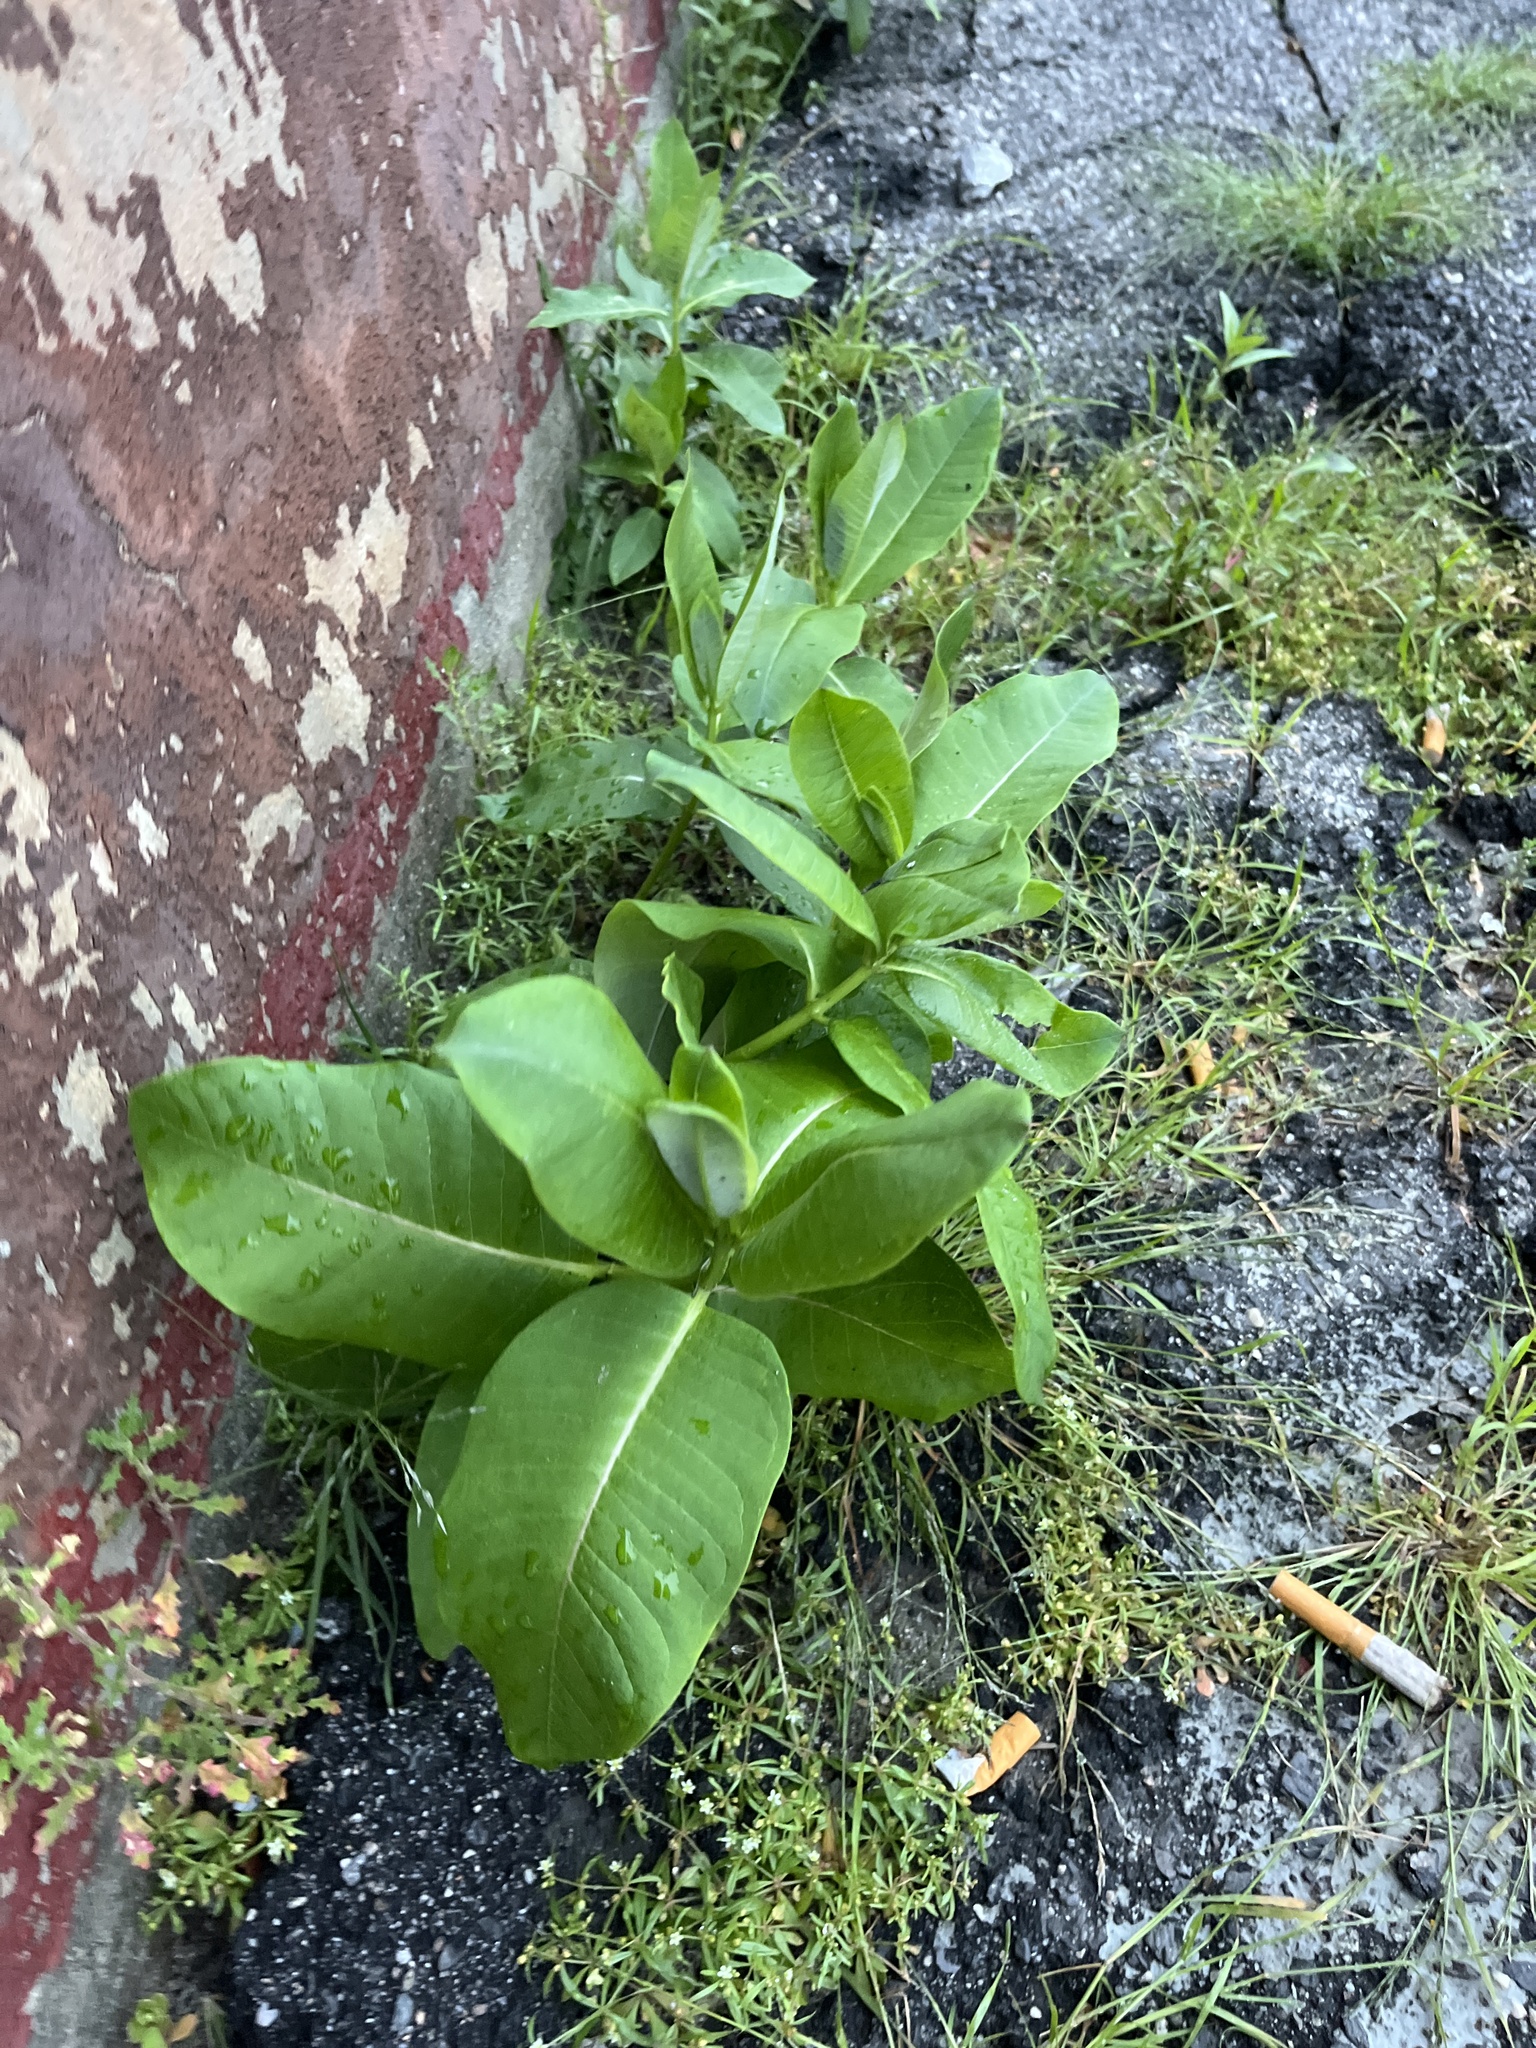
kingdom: Plantae
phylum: Tracheophyta
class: Magnoliopsida
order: Gentianales
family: Apocynaceae
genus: Asclepias
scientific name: Asclepias syriaca
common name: Common milkweed
